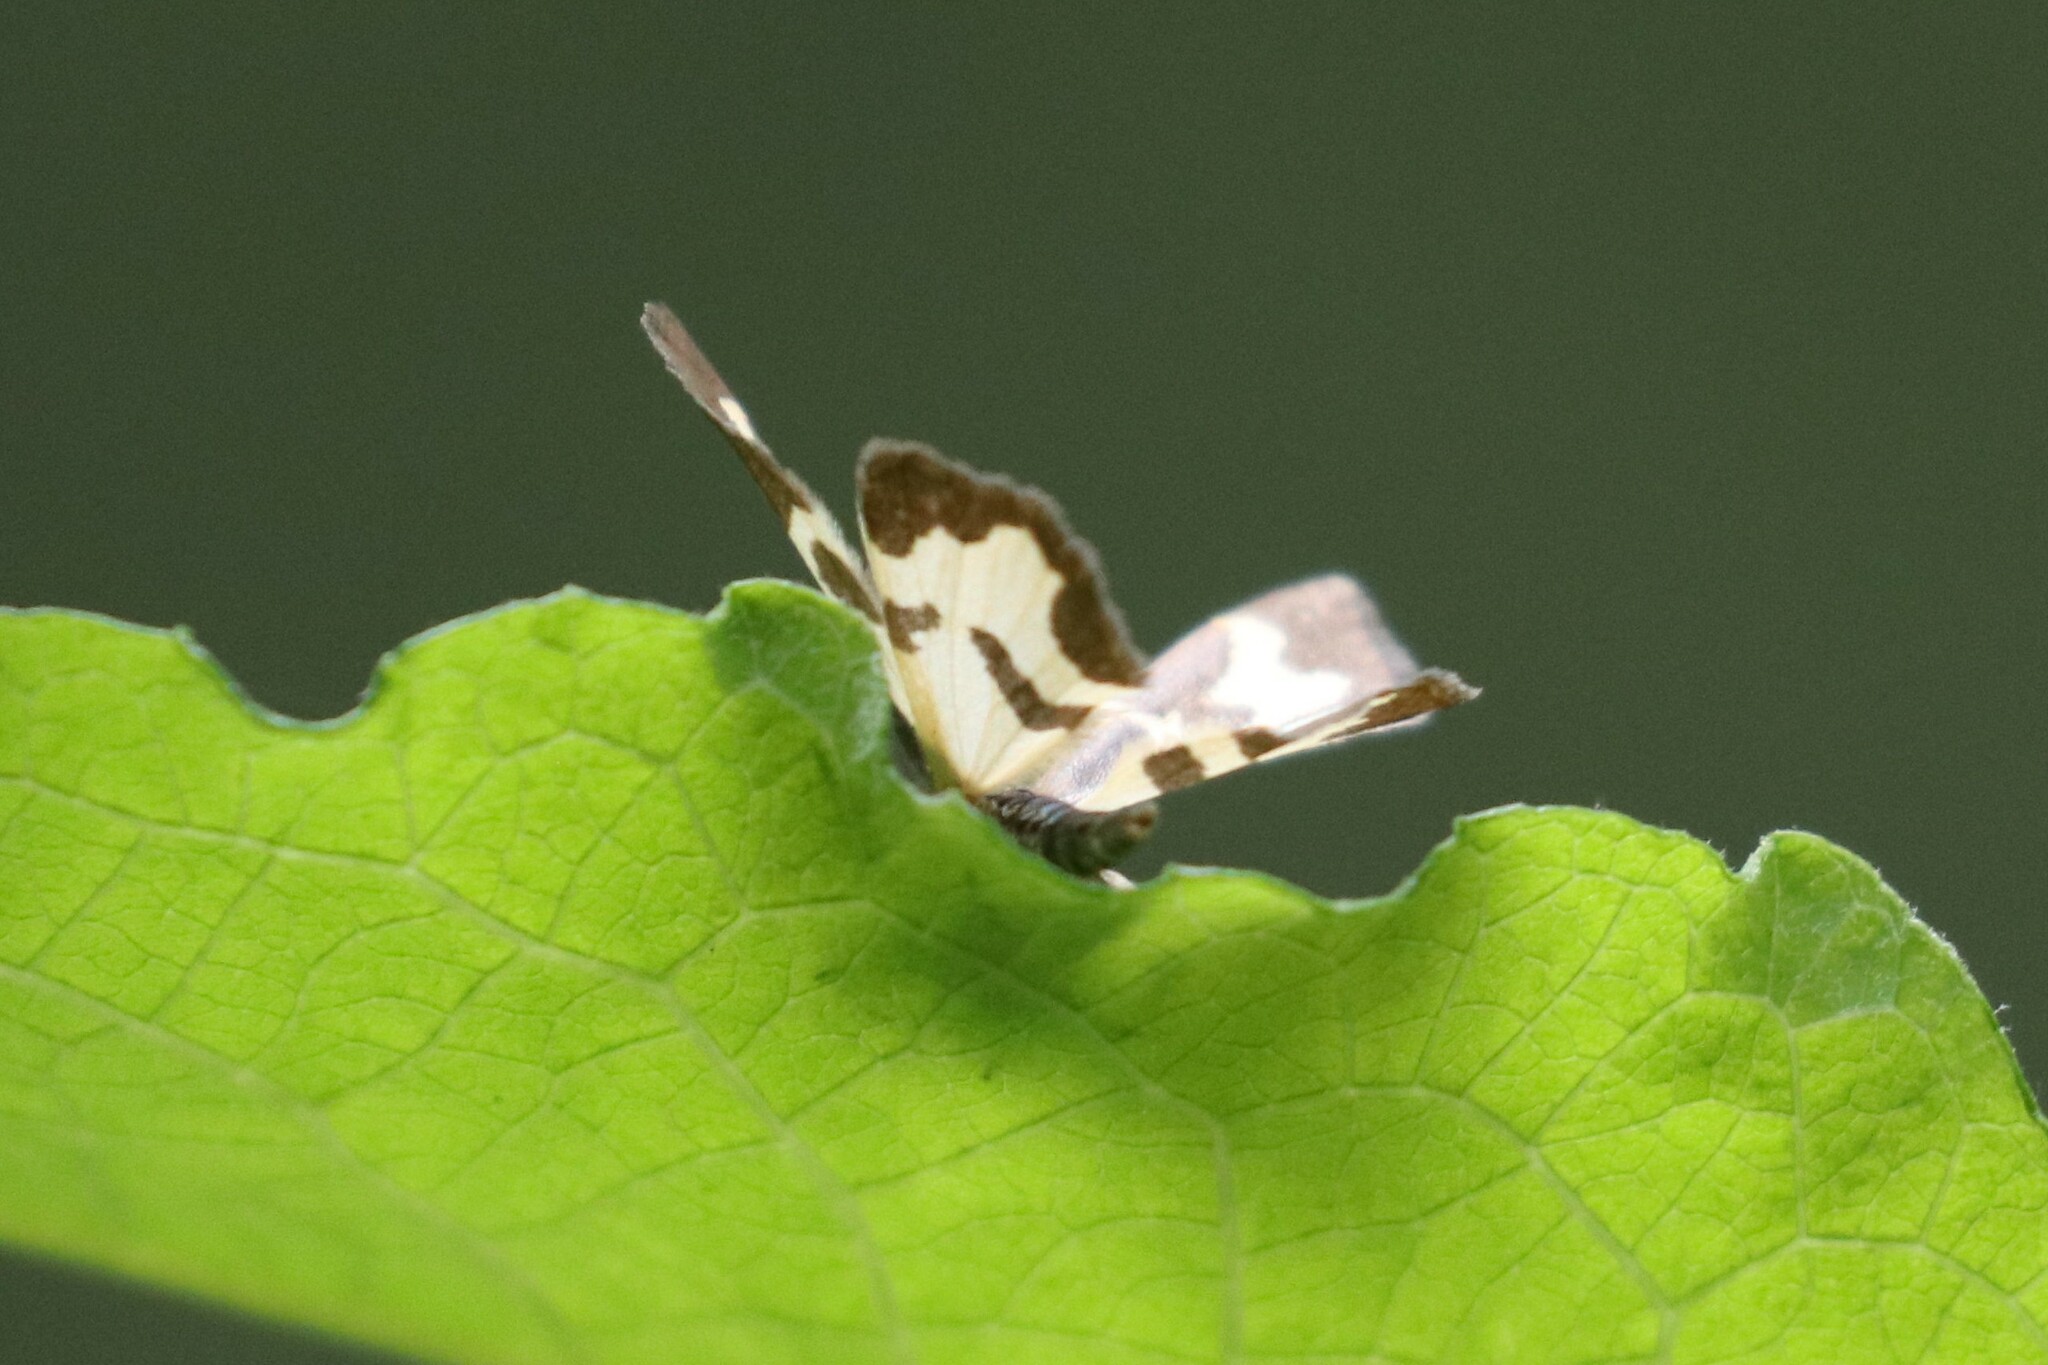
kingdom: Animalia
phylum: Arthropoda
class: Insecta
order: Lepidoptera
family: Geometridae
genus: Lomaspilis
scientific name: Lomaspilis marginata
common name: Clouded border
